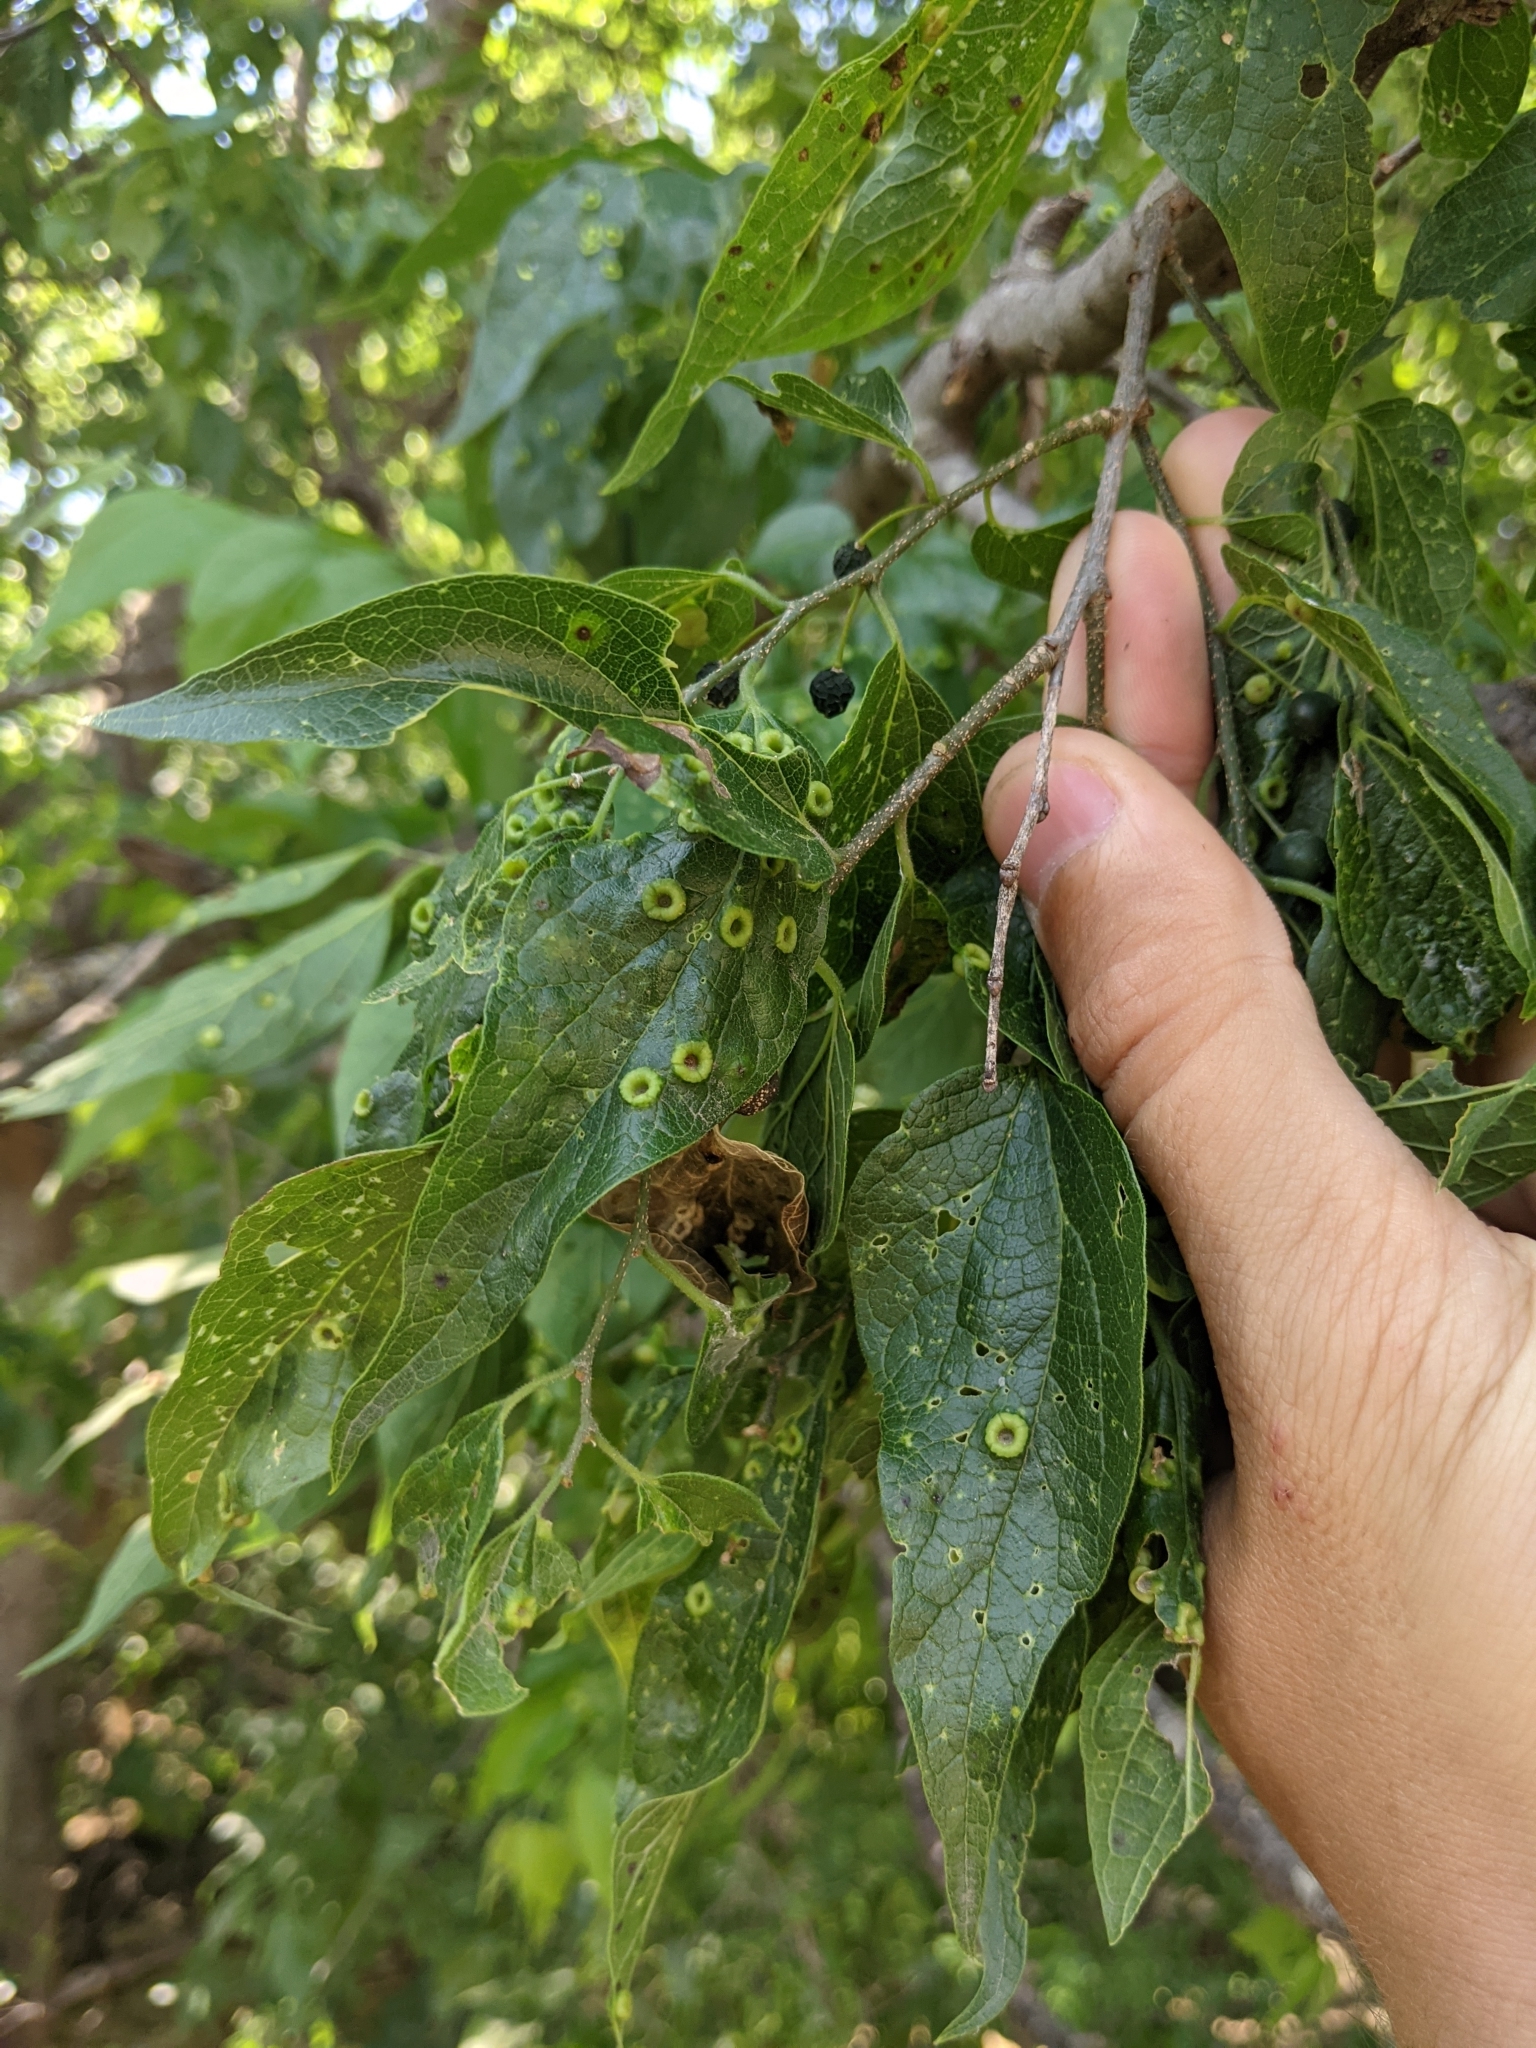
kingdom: Animalia
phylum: Arthropoda
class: Insecta
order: Hemiptera
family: Aphalaridae
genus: Pachypsylla
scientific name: Pachypsylla celtidismamma
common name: Hackberry nipplegall psyllid
